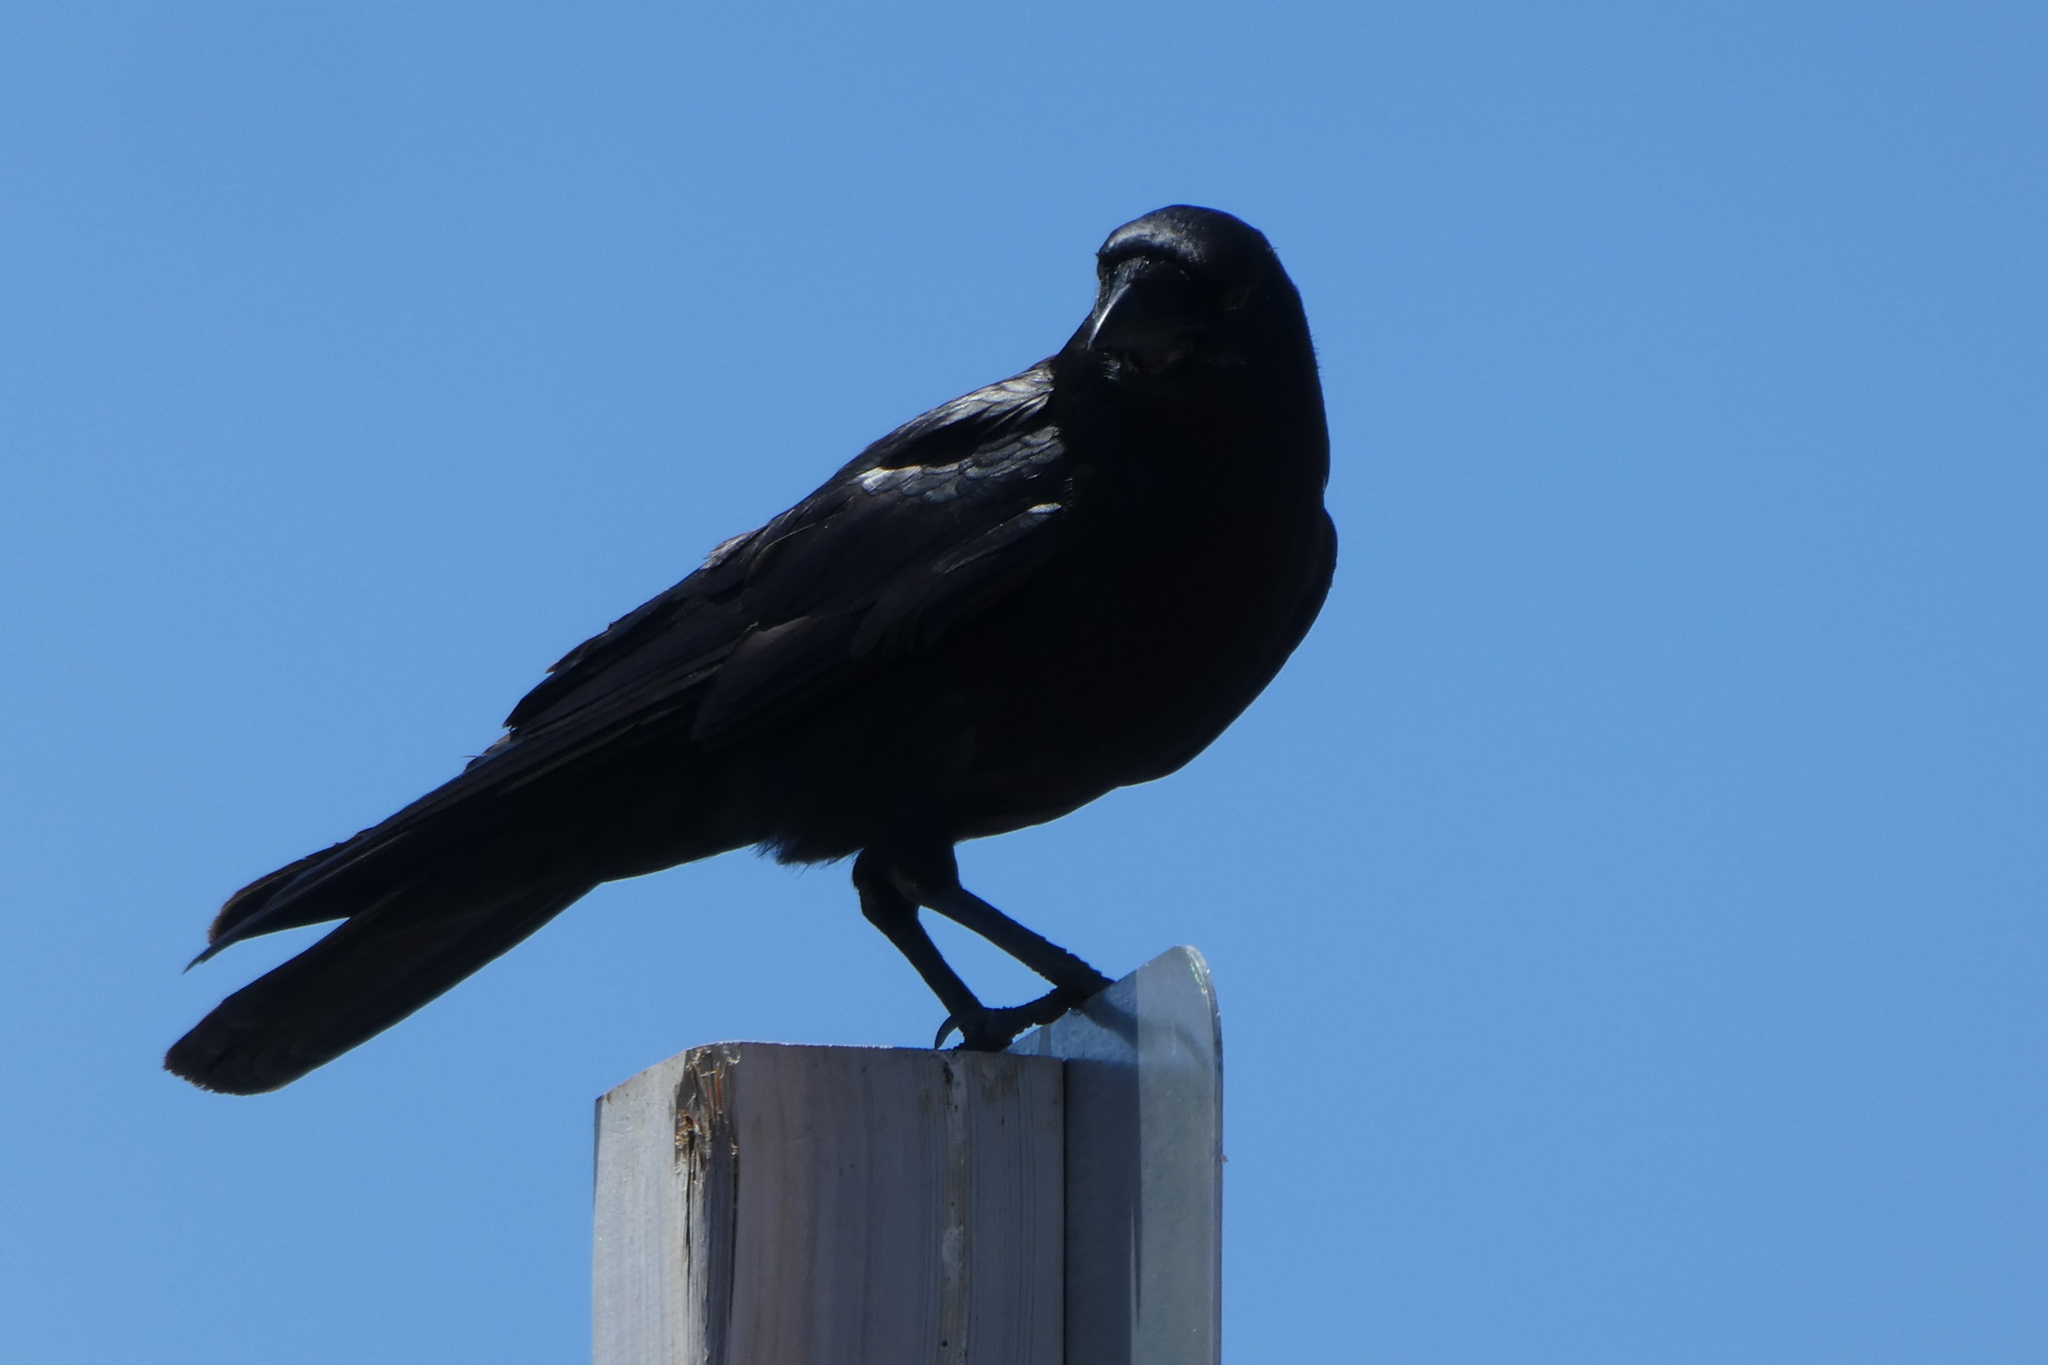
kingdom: Animalia
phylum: Chordata
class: Aves
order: Passeriformes
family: Corvidae
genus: Corvus
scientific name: Corvus brachyrhynchos
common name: American crow
